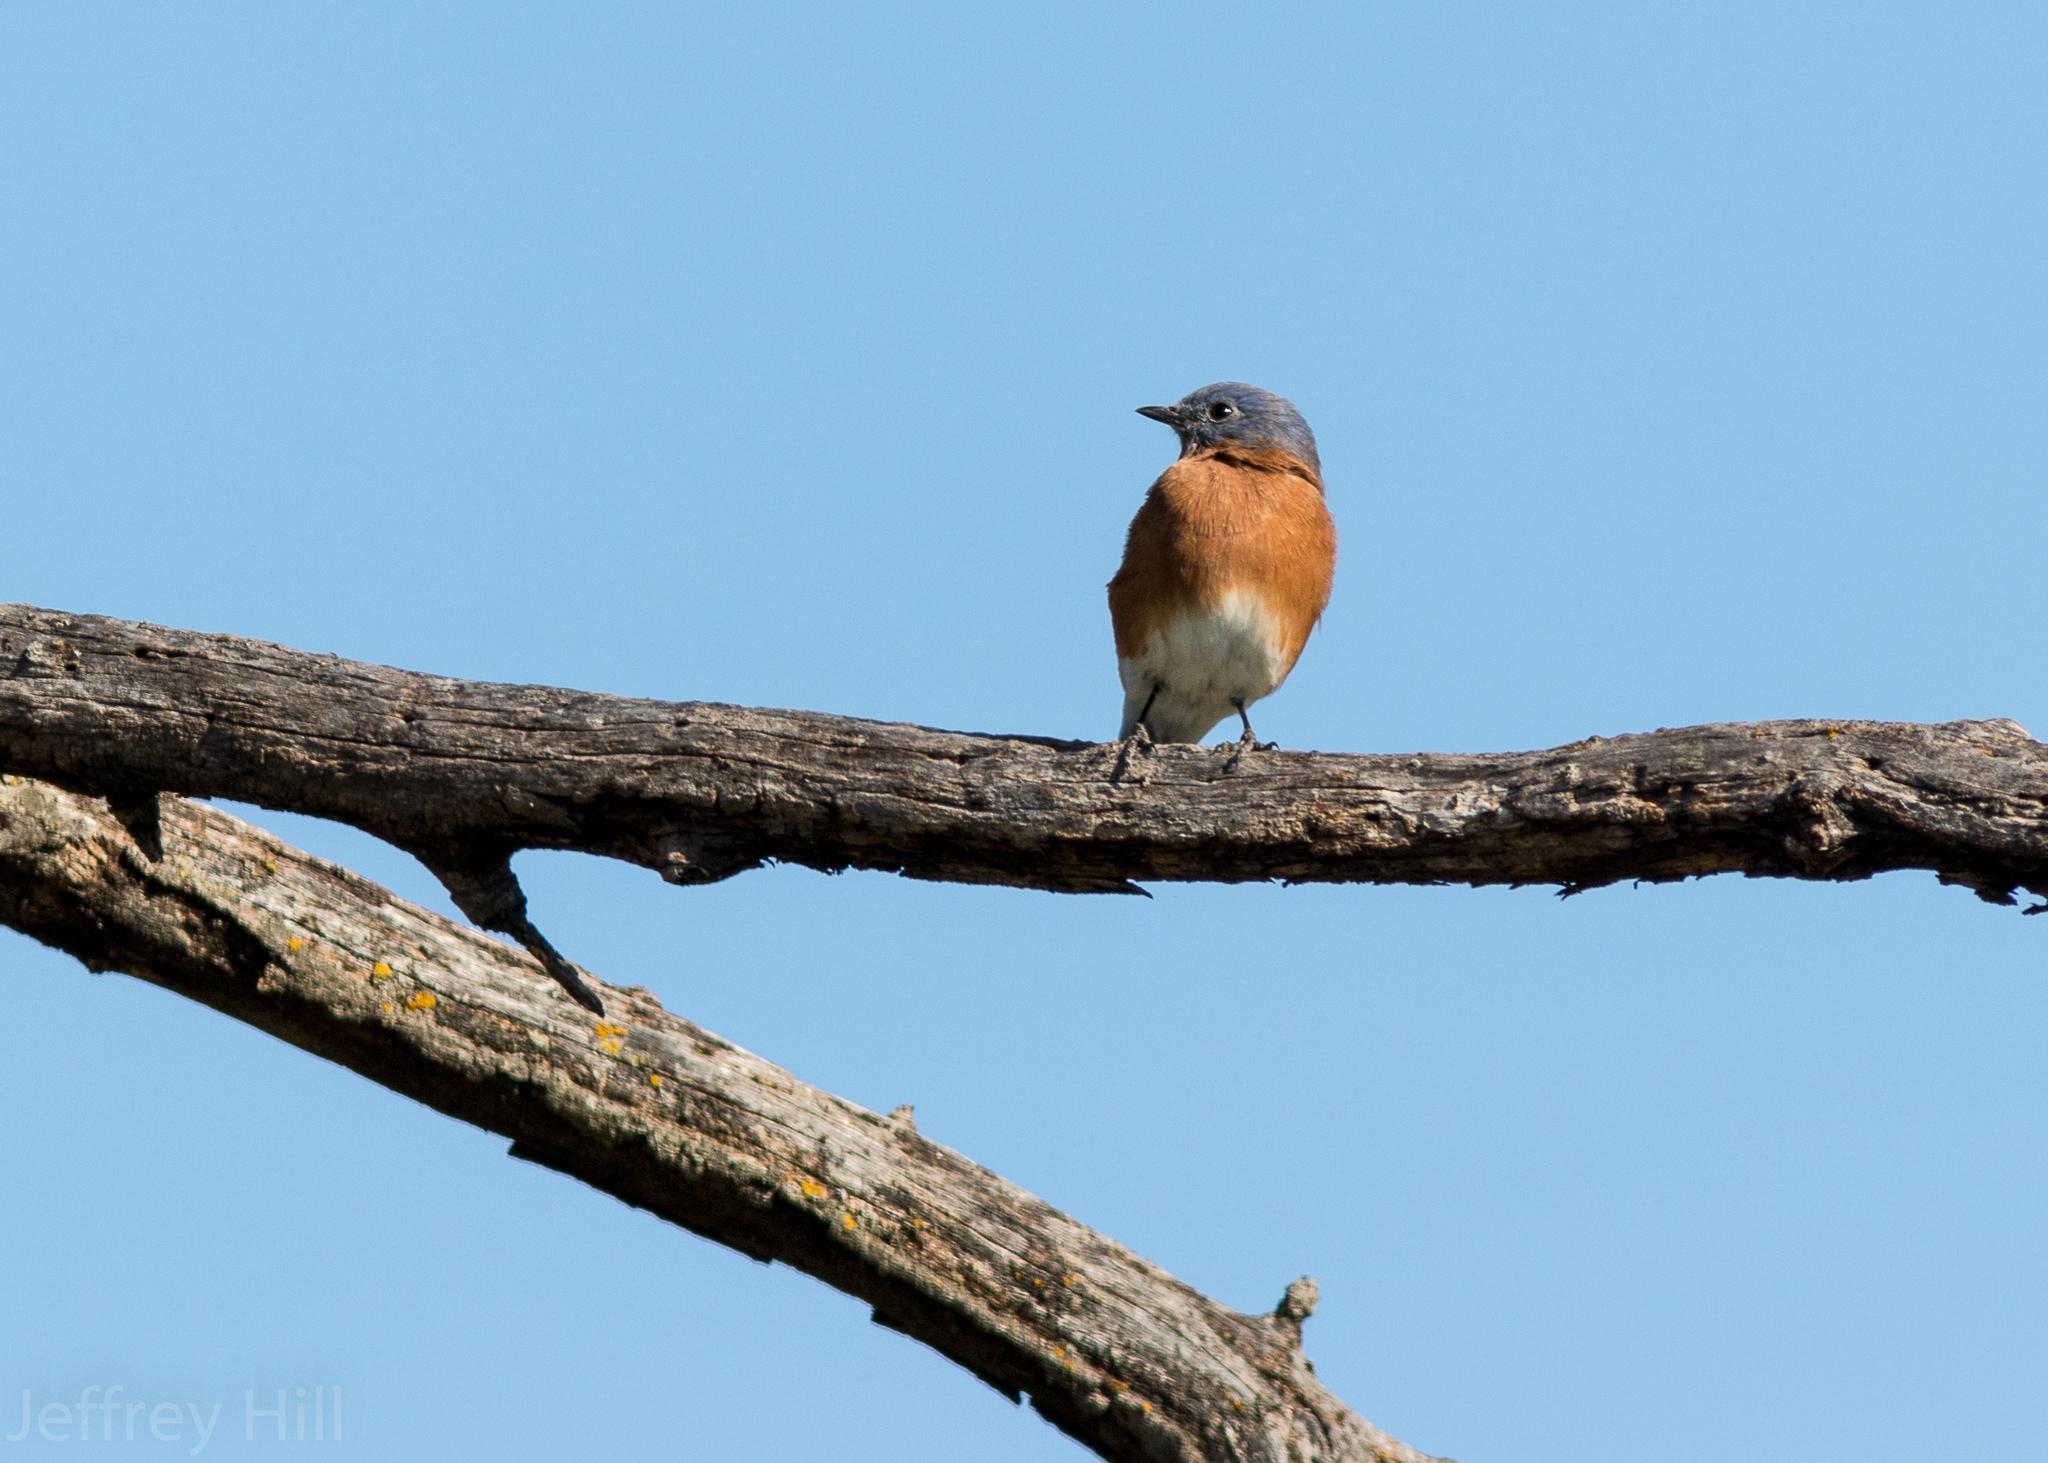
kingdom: Animalia
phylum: Chordata
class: Aves
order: Passeriformes
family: Turdidae
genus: Sialia
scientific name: Sialia sialis
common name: Eastern bluebird
